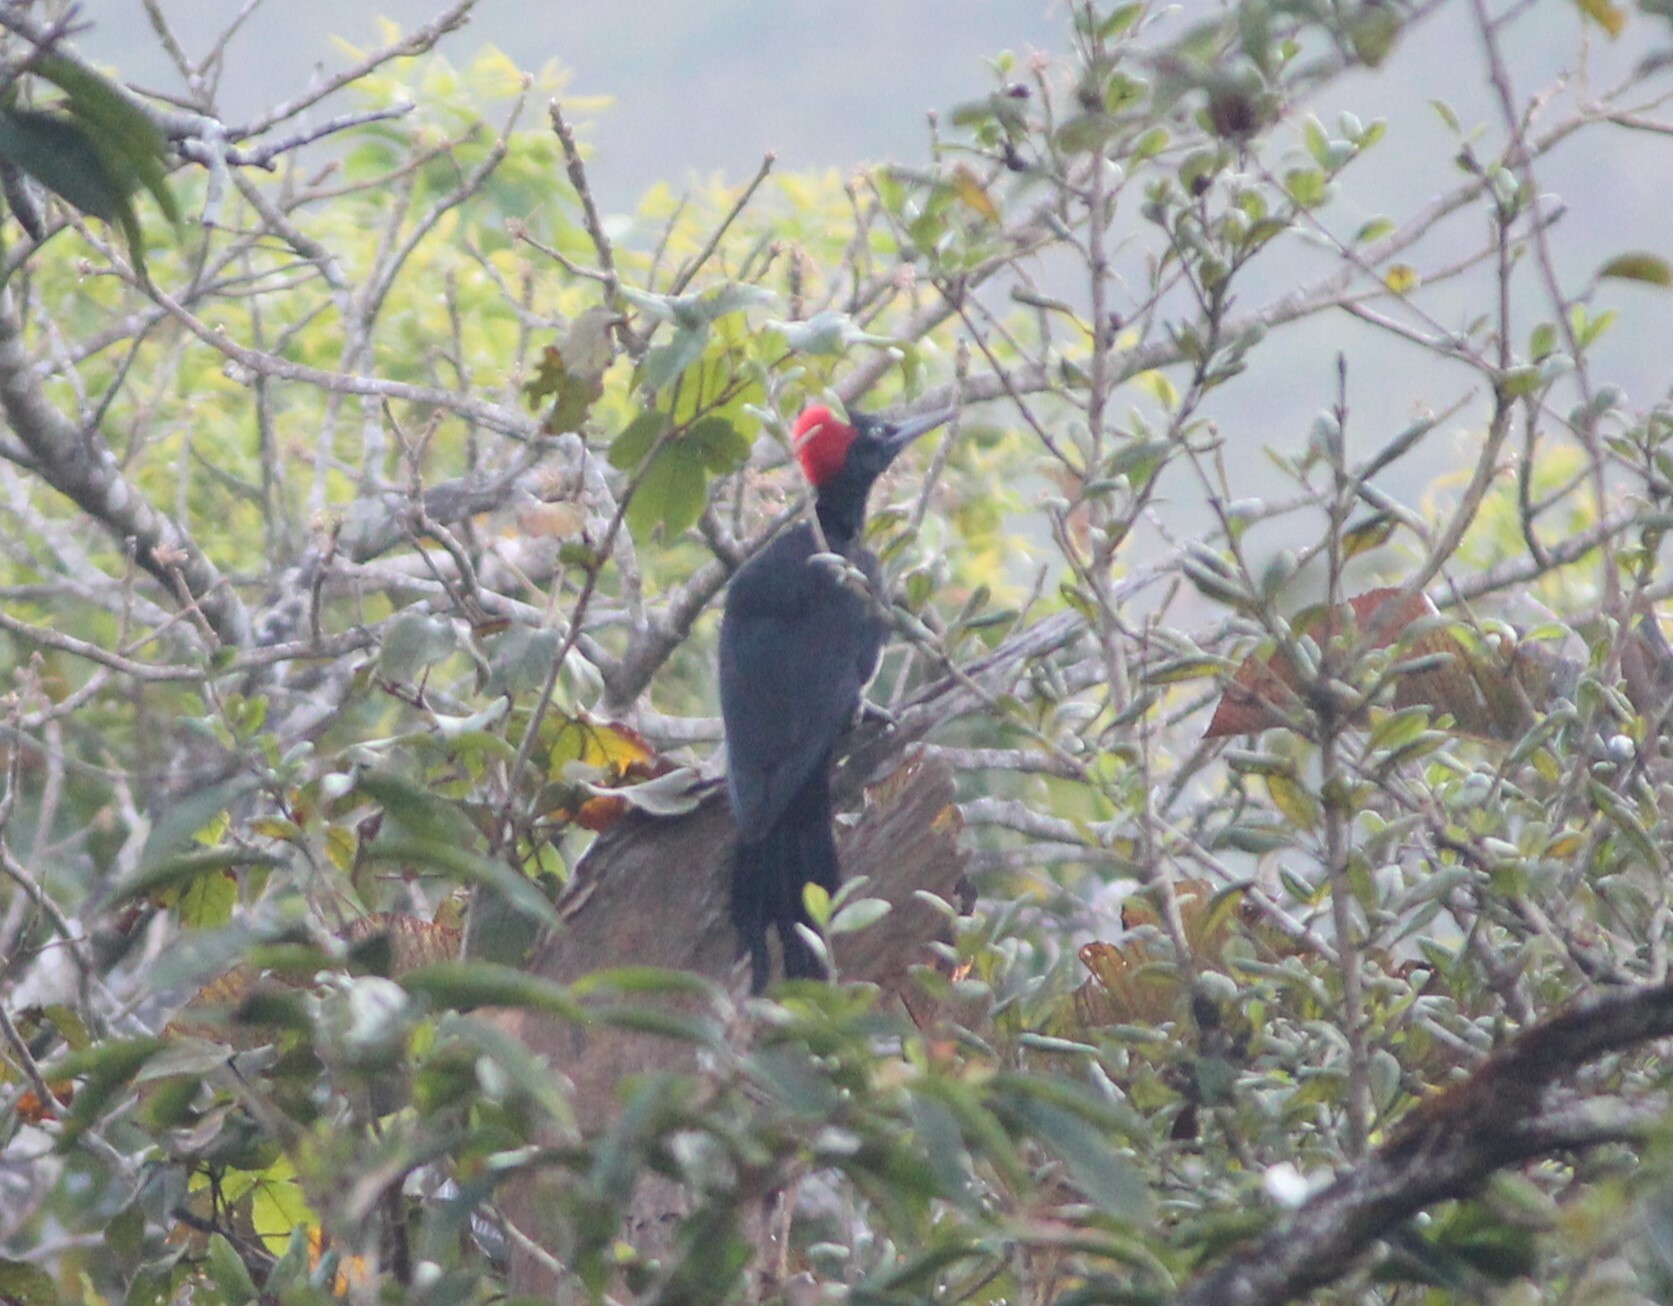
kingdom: Animalia
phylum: Chordata
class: Aves
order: Piciformes
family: Picidae
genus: Dryocopus
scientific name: Dryocopus javensis
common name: White-bellied woodpecker
